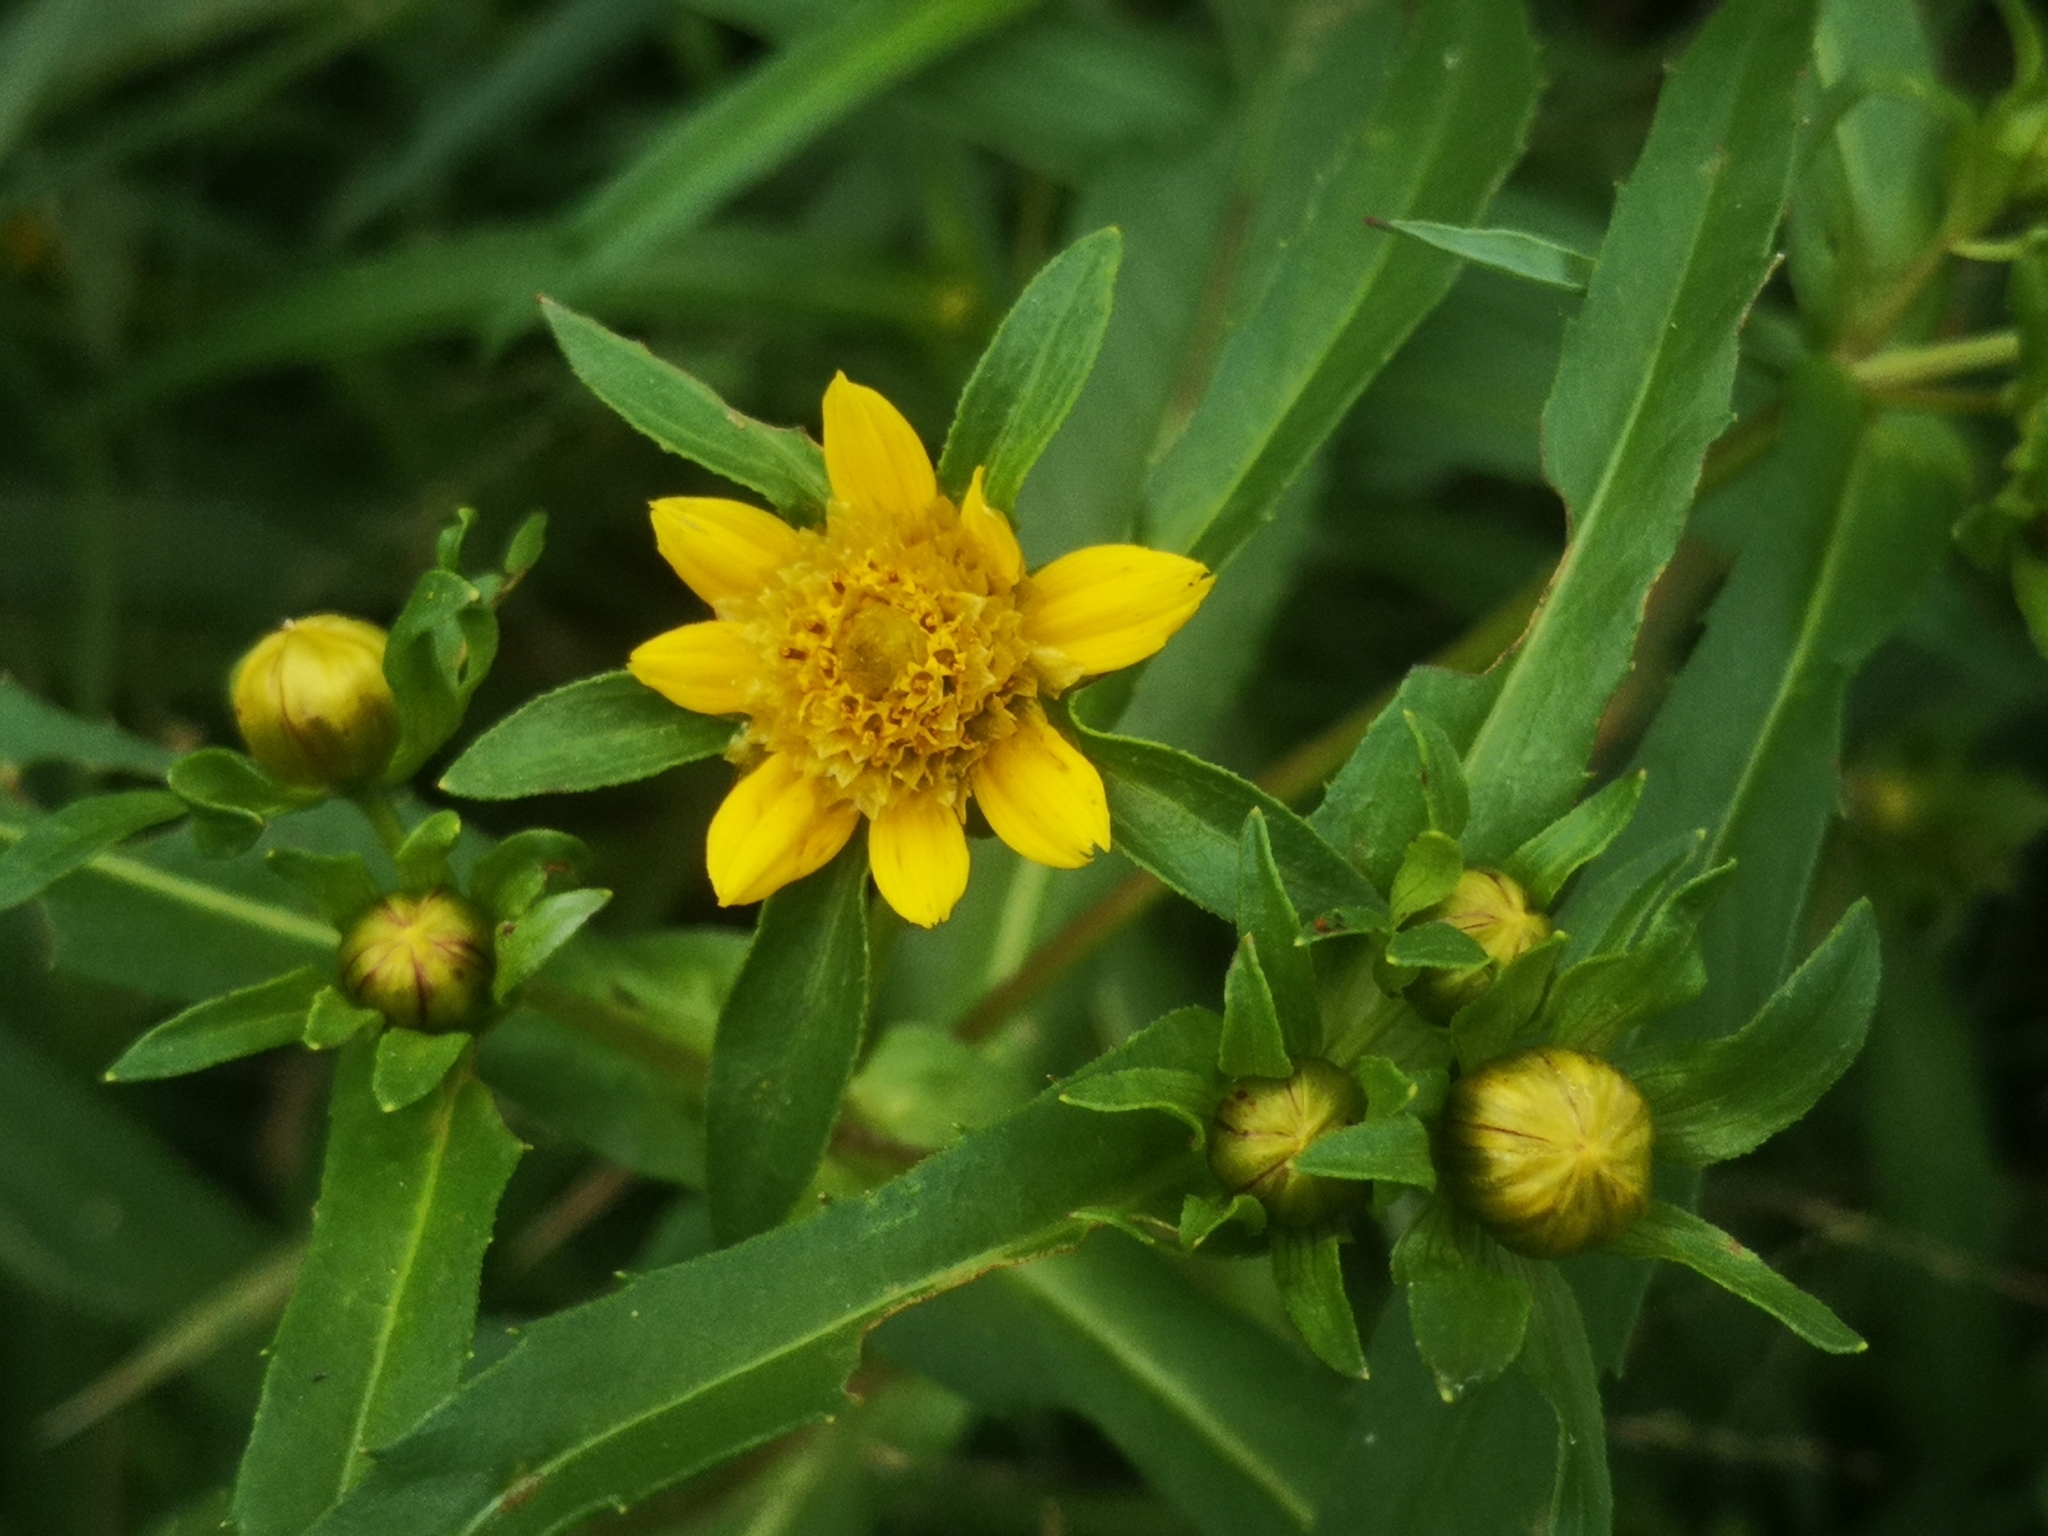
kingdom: Plantae
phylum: Tracheophyta
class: Magnoliopsida
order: Asterales
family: Asteraceae
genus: Bidens
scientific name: Bidens cernua
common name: Nodding bur-marigold
